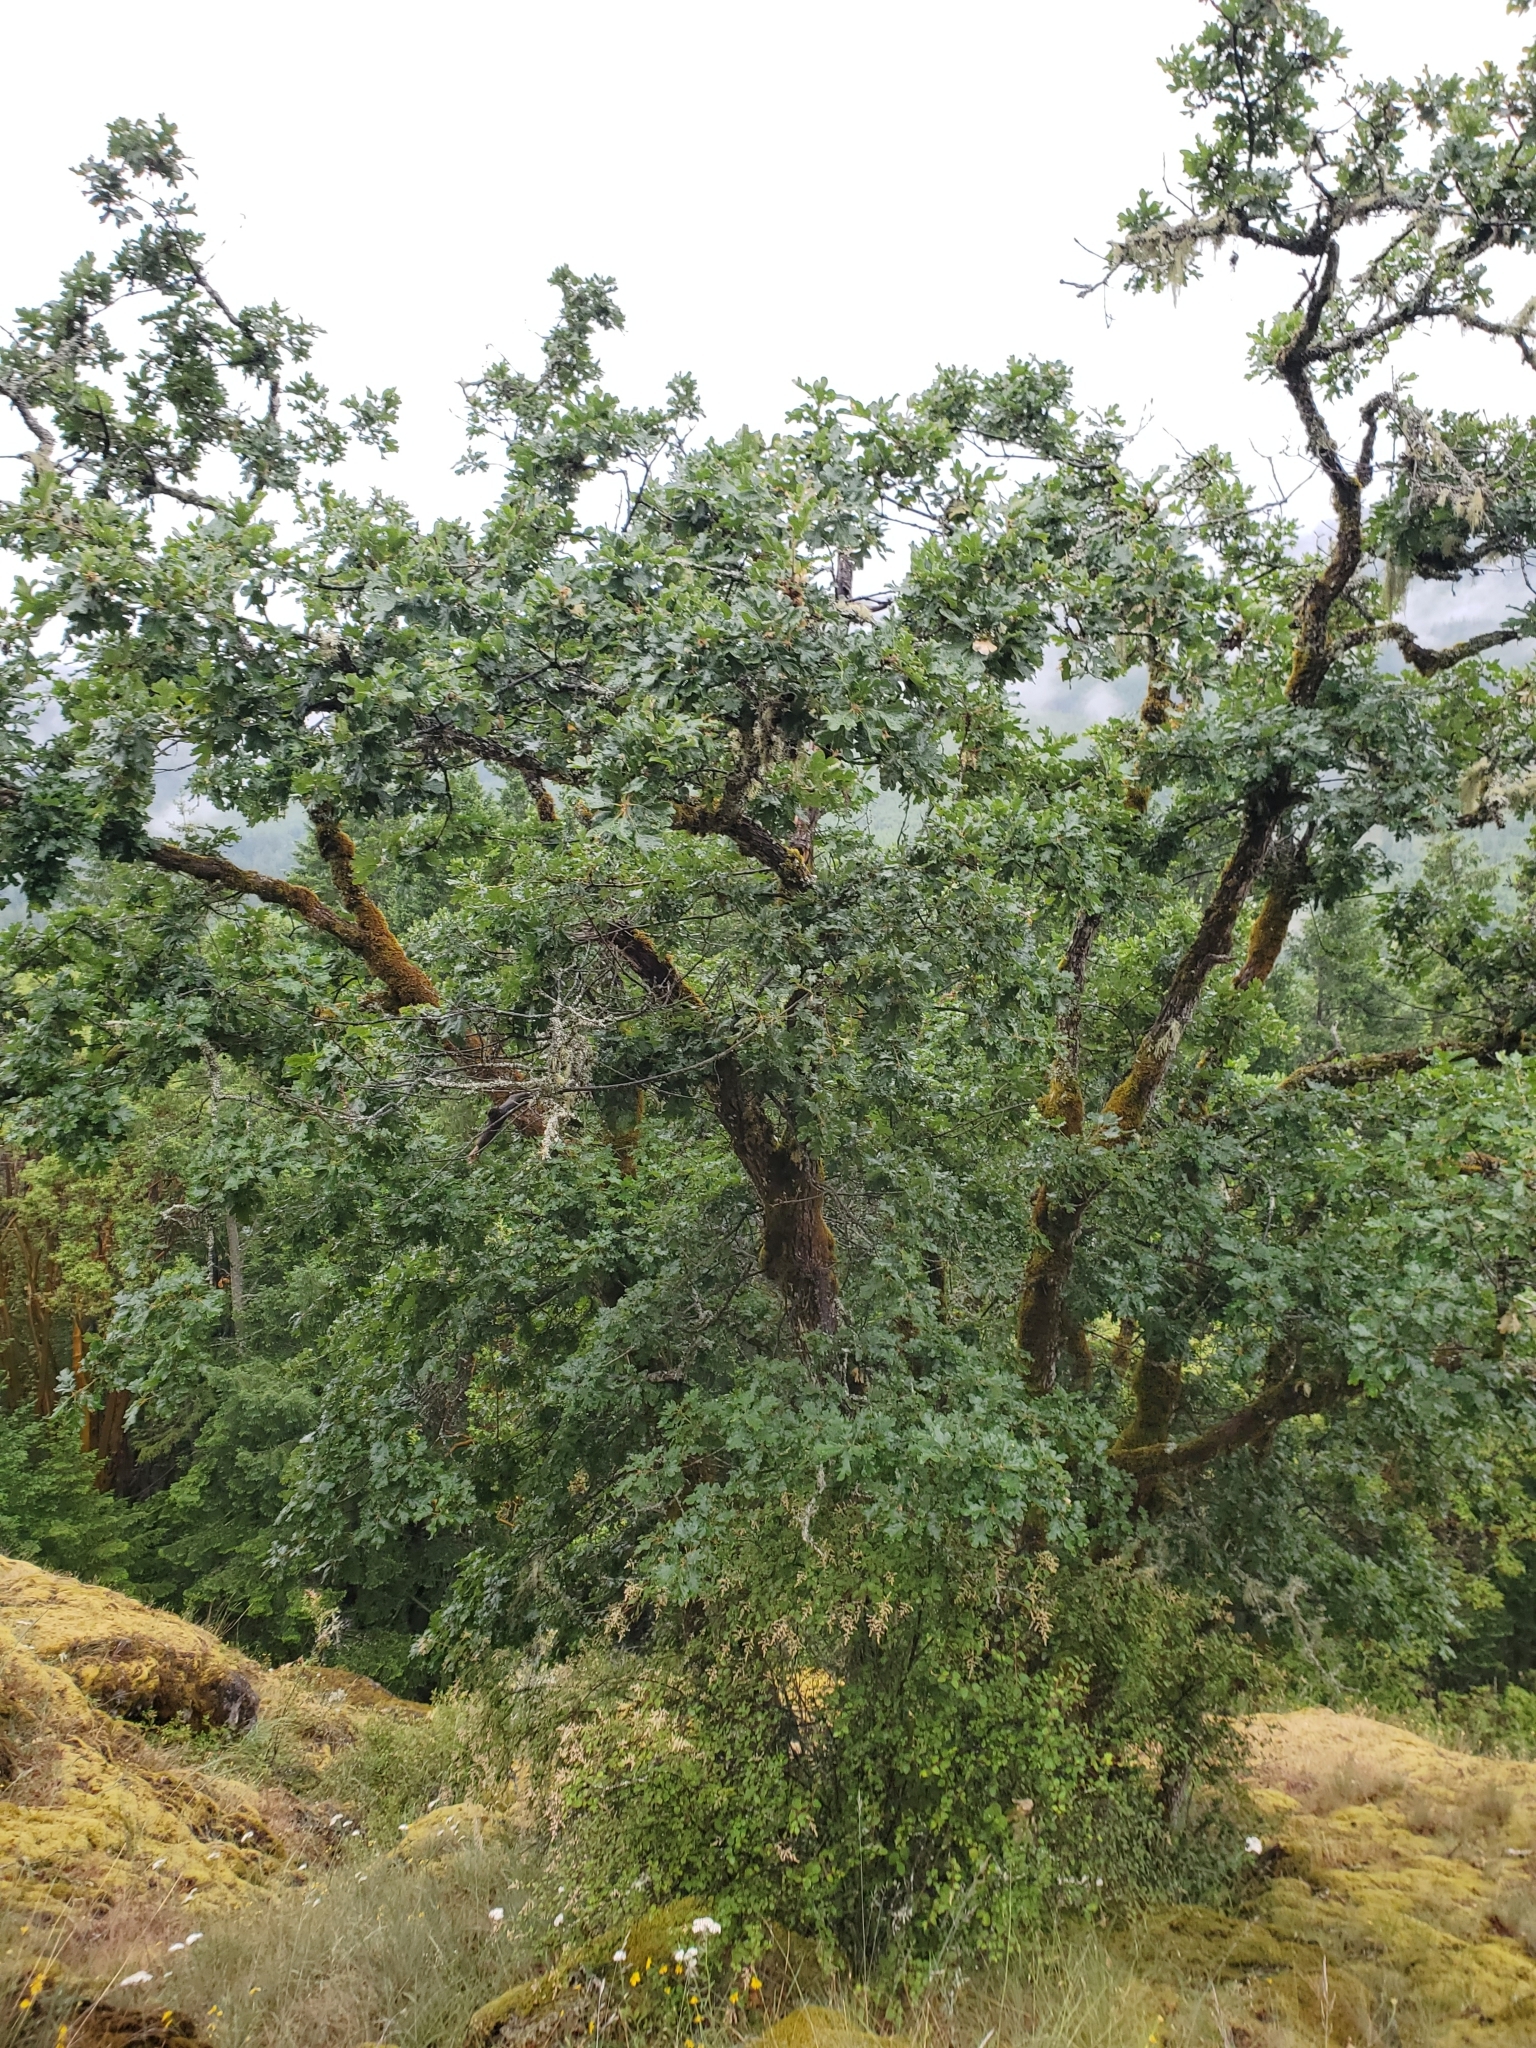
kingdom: Plantae
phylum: Tracheophyta
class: Magnoliopsida
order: Fagales
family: Fagaceae
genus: Quercus
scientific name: Quercus garryana
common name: Garry oak
